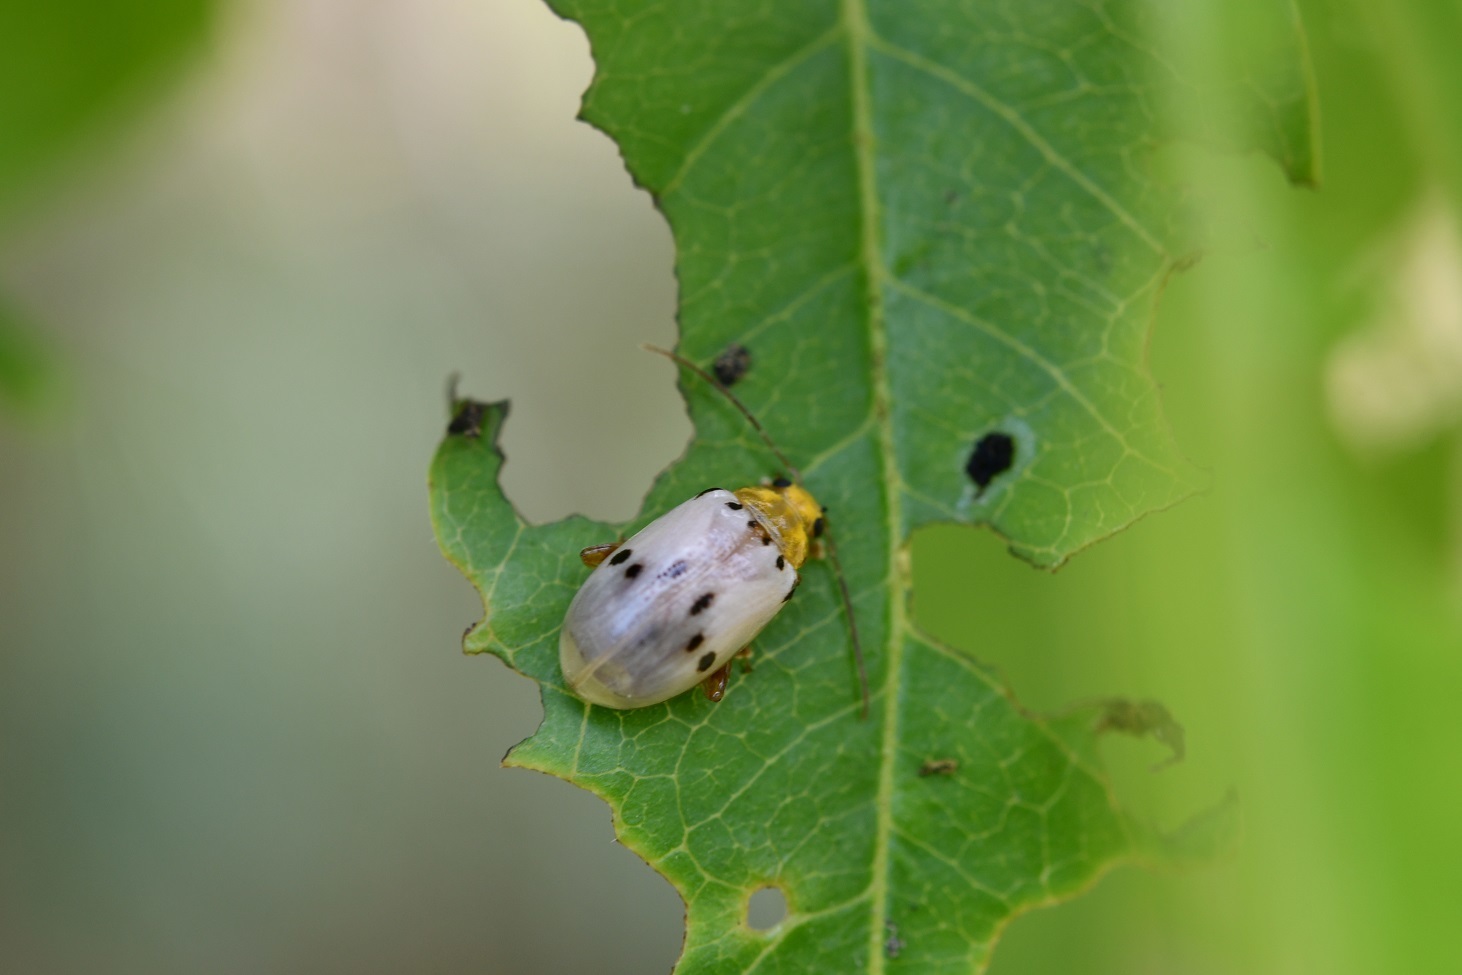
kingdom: Animalia
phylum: Arthropoda
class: Insecta
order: Coleoptera
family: Chrysomelidae
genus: Acrocyum
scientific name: Acrocyum sallaei
